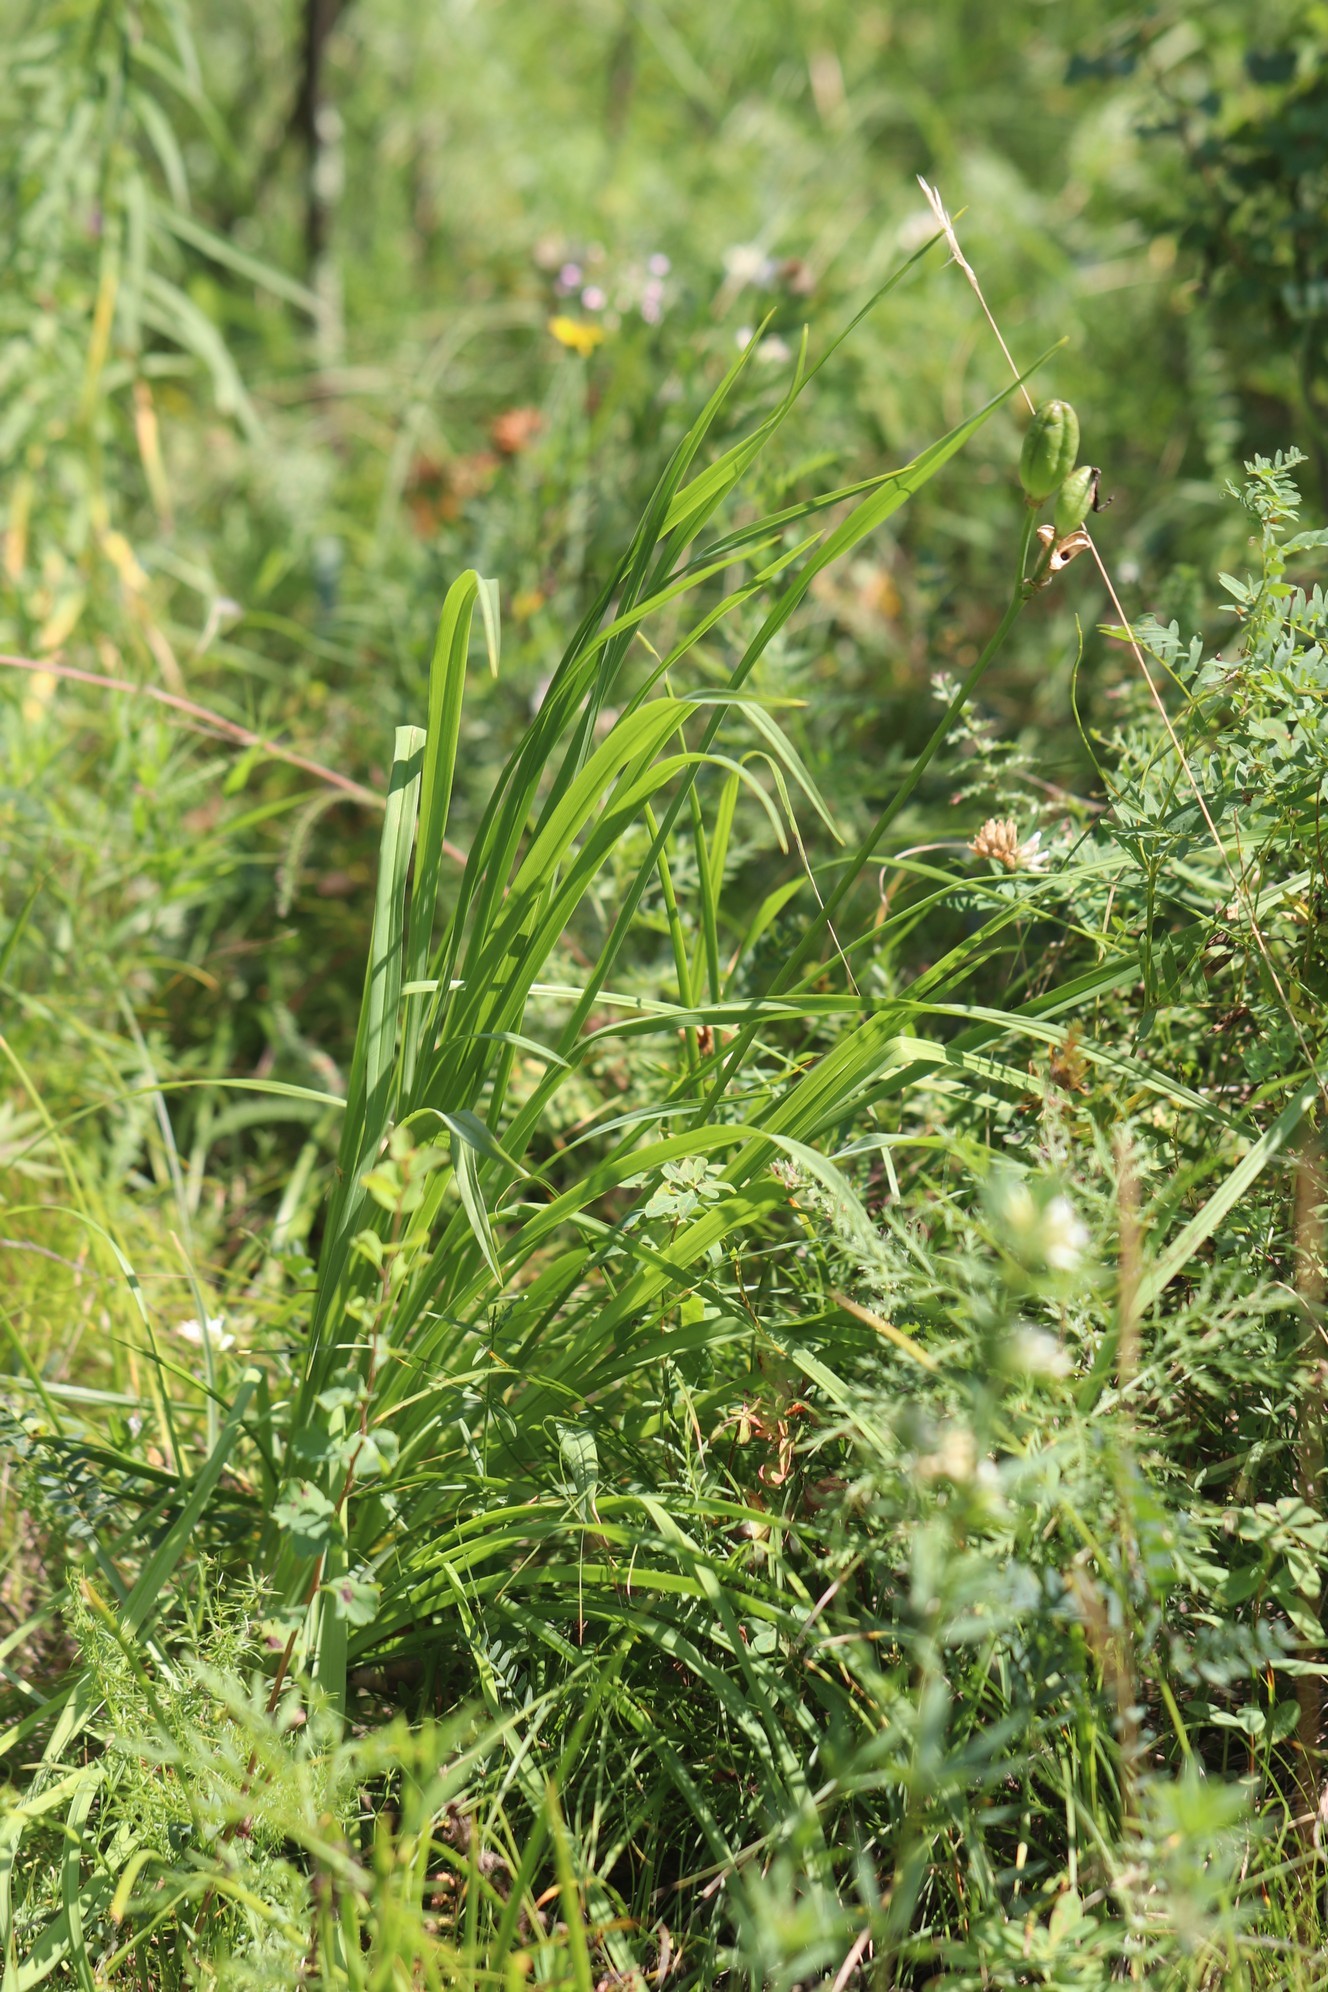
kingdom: Plantae
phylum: Tracheophyta
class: Liliopsida
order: Asparagales
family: Asphodelaceae
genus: Hemerocallis
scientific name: Hemerocallis minor
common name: Small daylily
